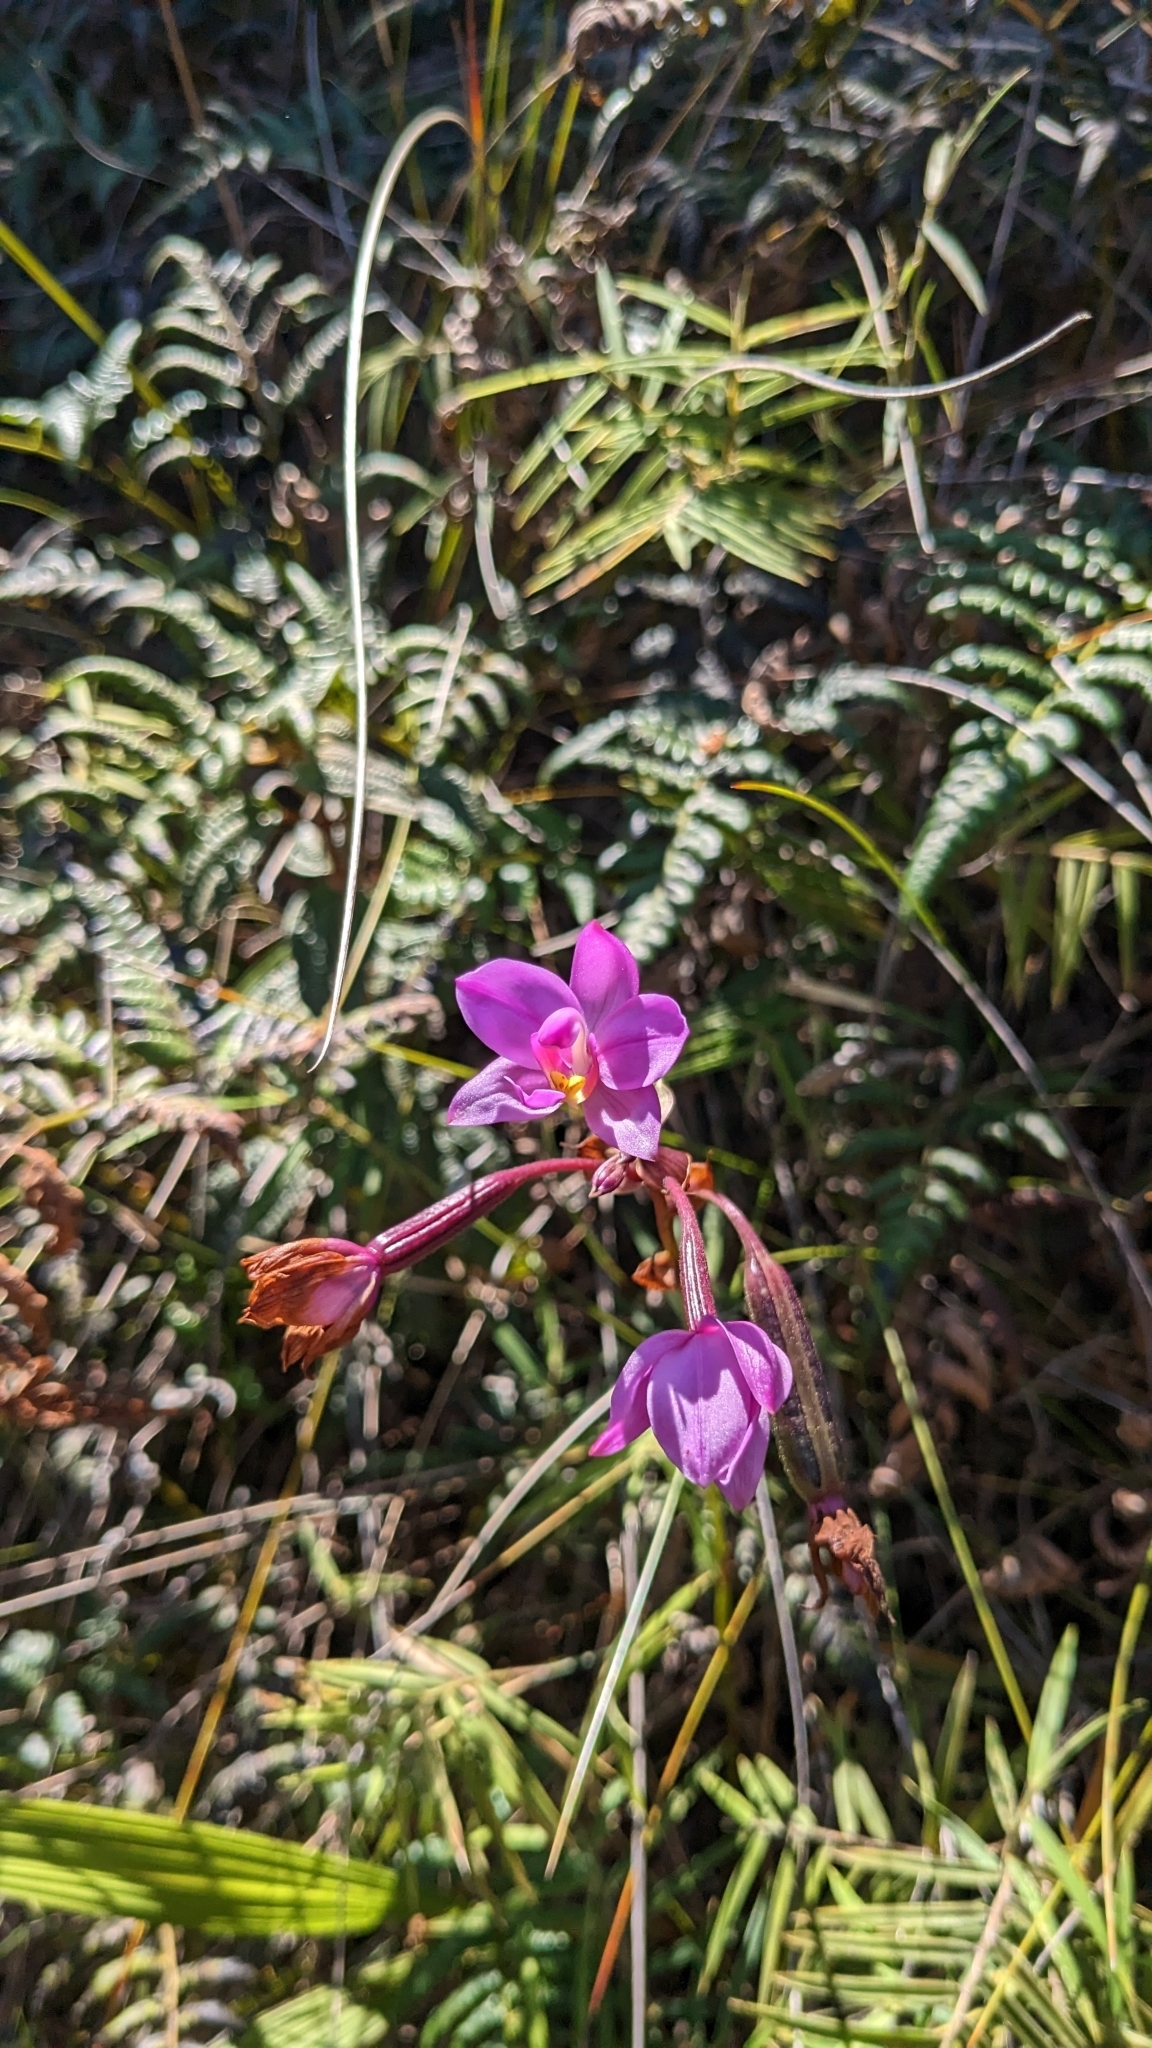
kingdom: Plantae
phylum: Tracheophyta
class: Liliopsida
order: Asparagales
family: Orchidaceae
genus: Spathoglottis
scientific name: Spathoglottis plicata
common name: Philippine ground orchid
